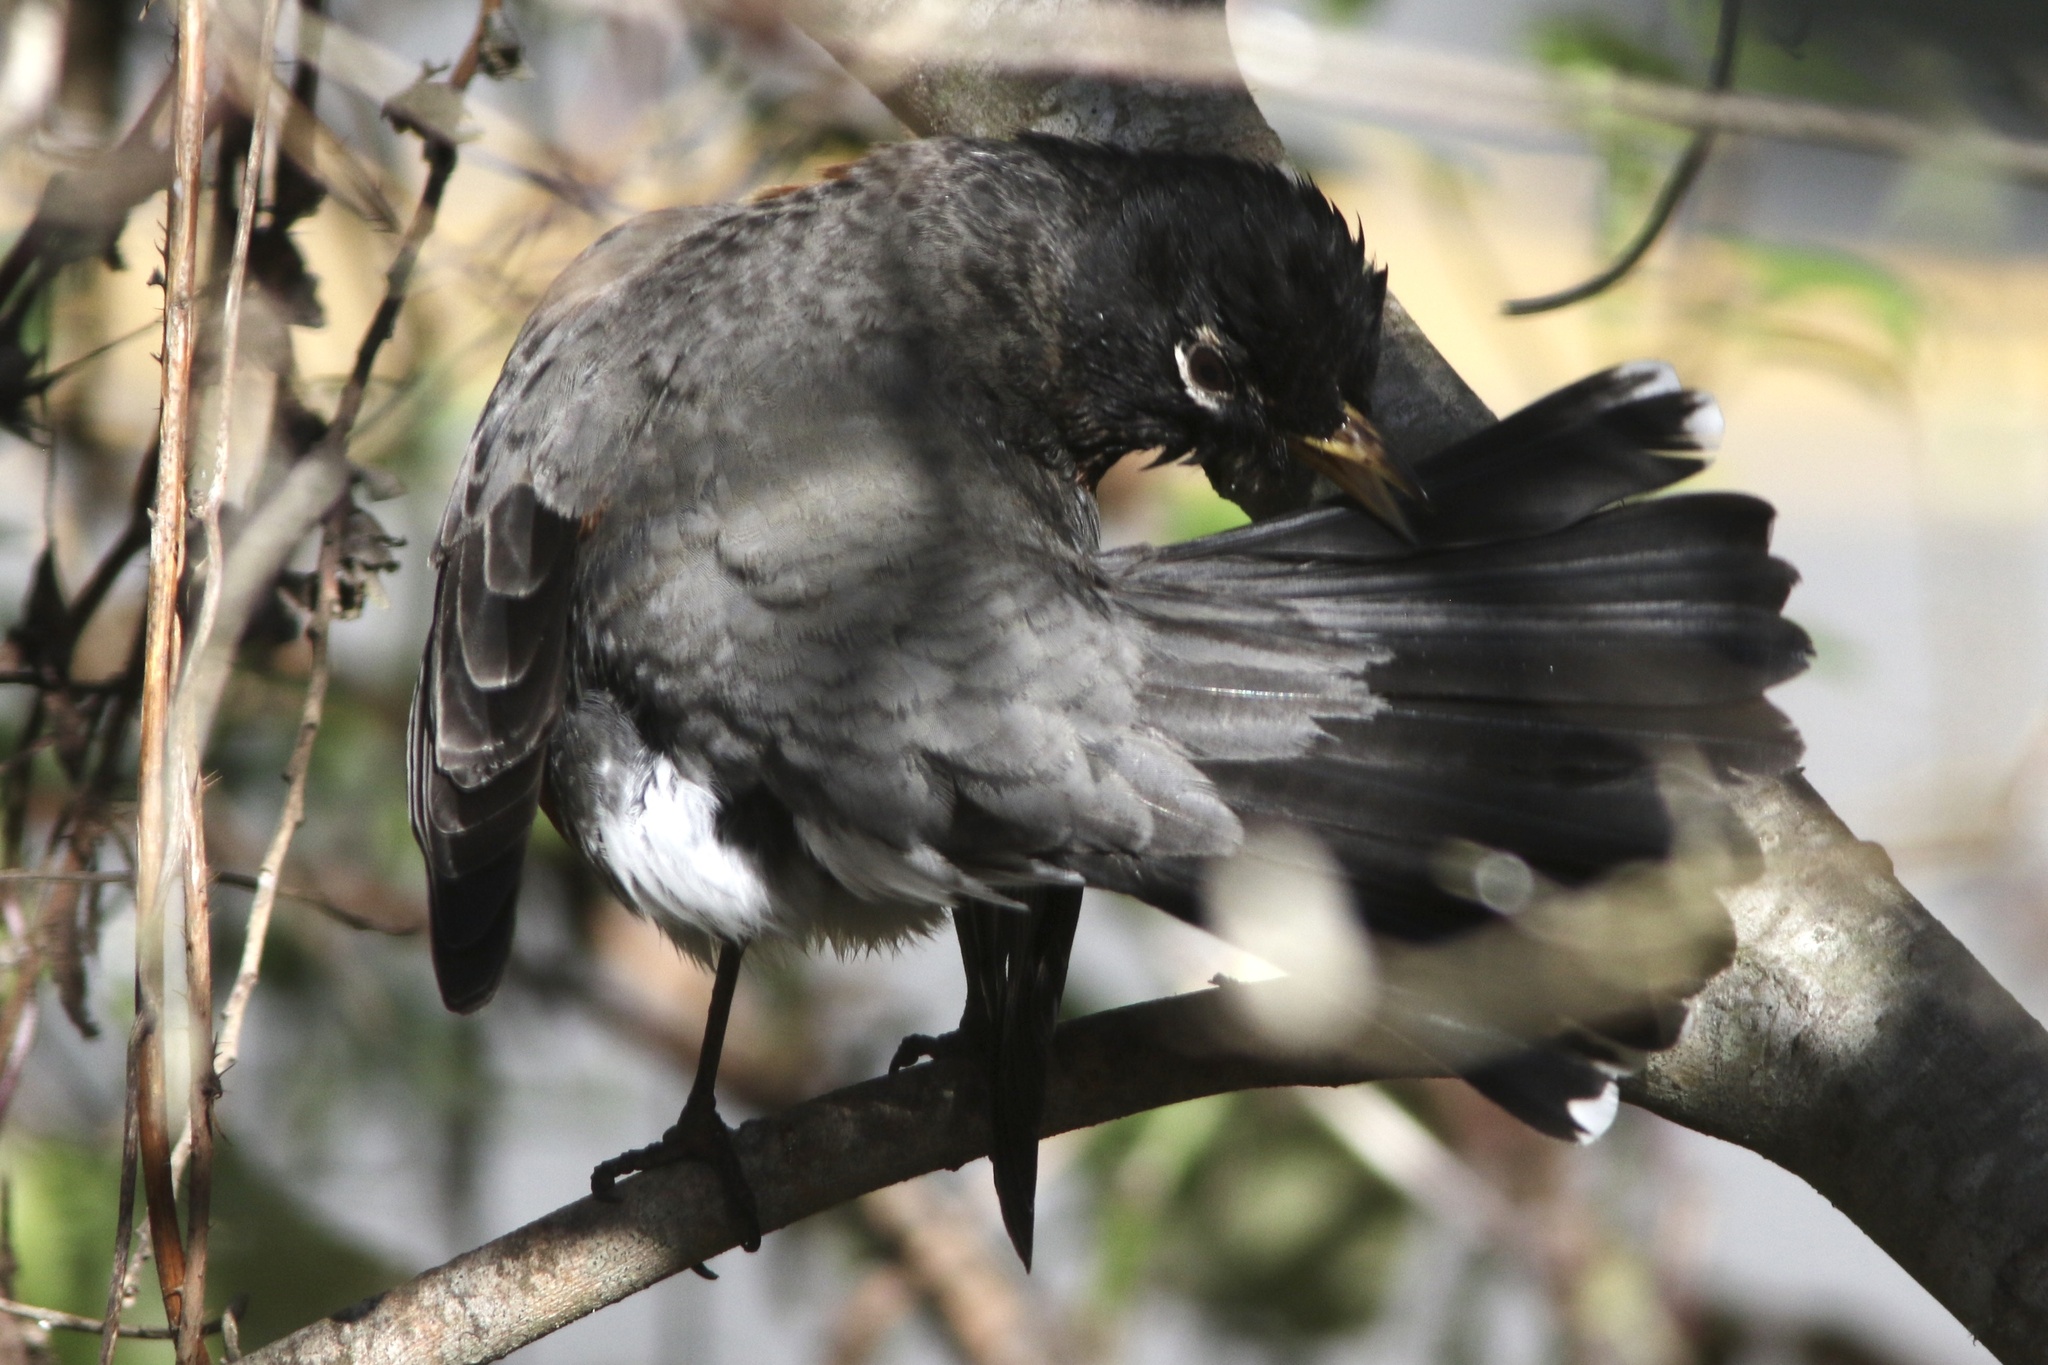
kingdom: Animalia
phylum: Chordata
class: Aves
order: Passeriformes
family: Turdidae
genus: Turdus
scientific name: Turdus migratorius
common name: American robin
